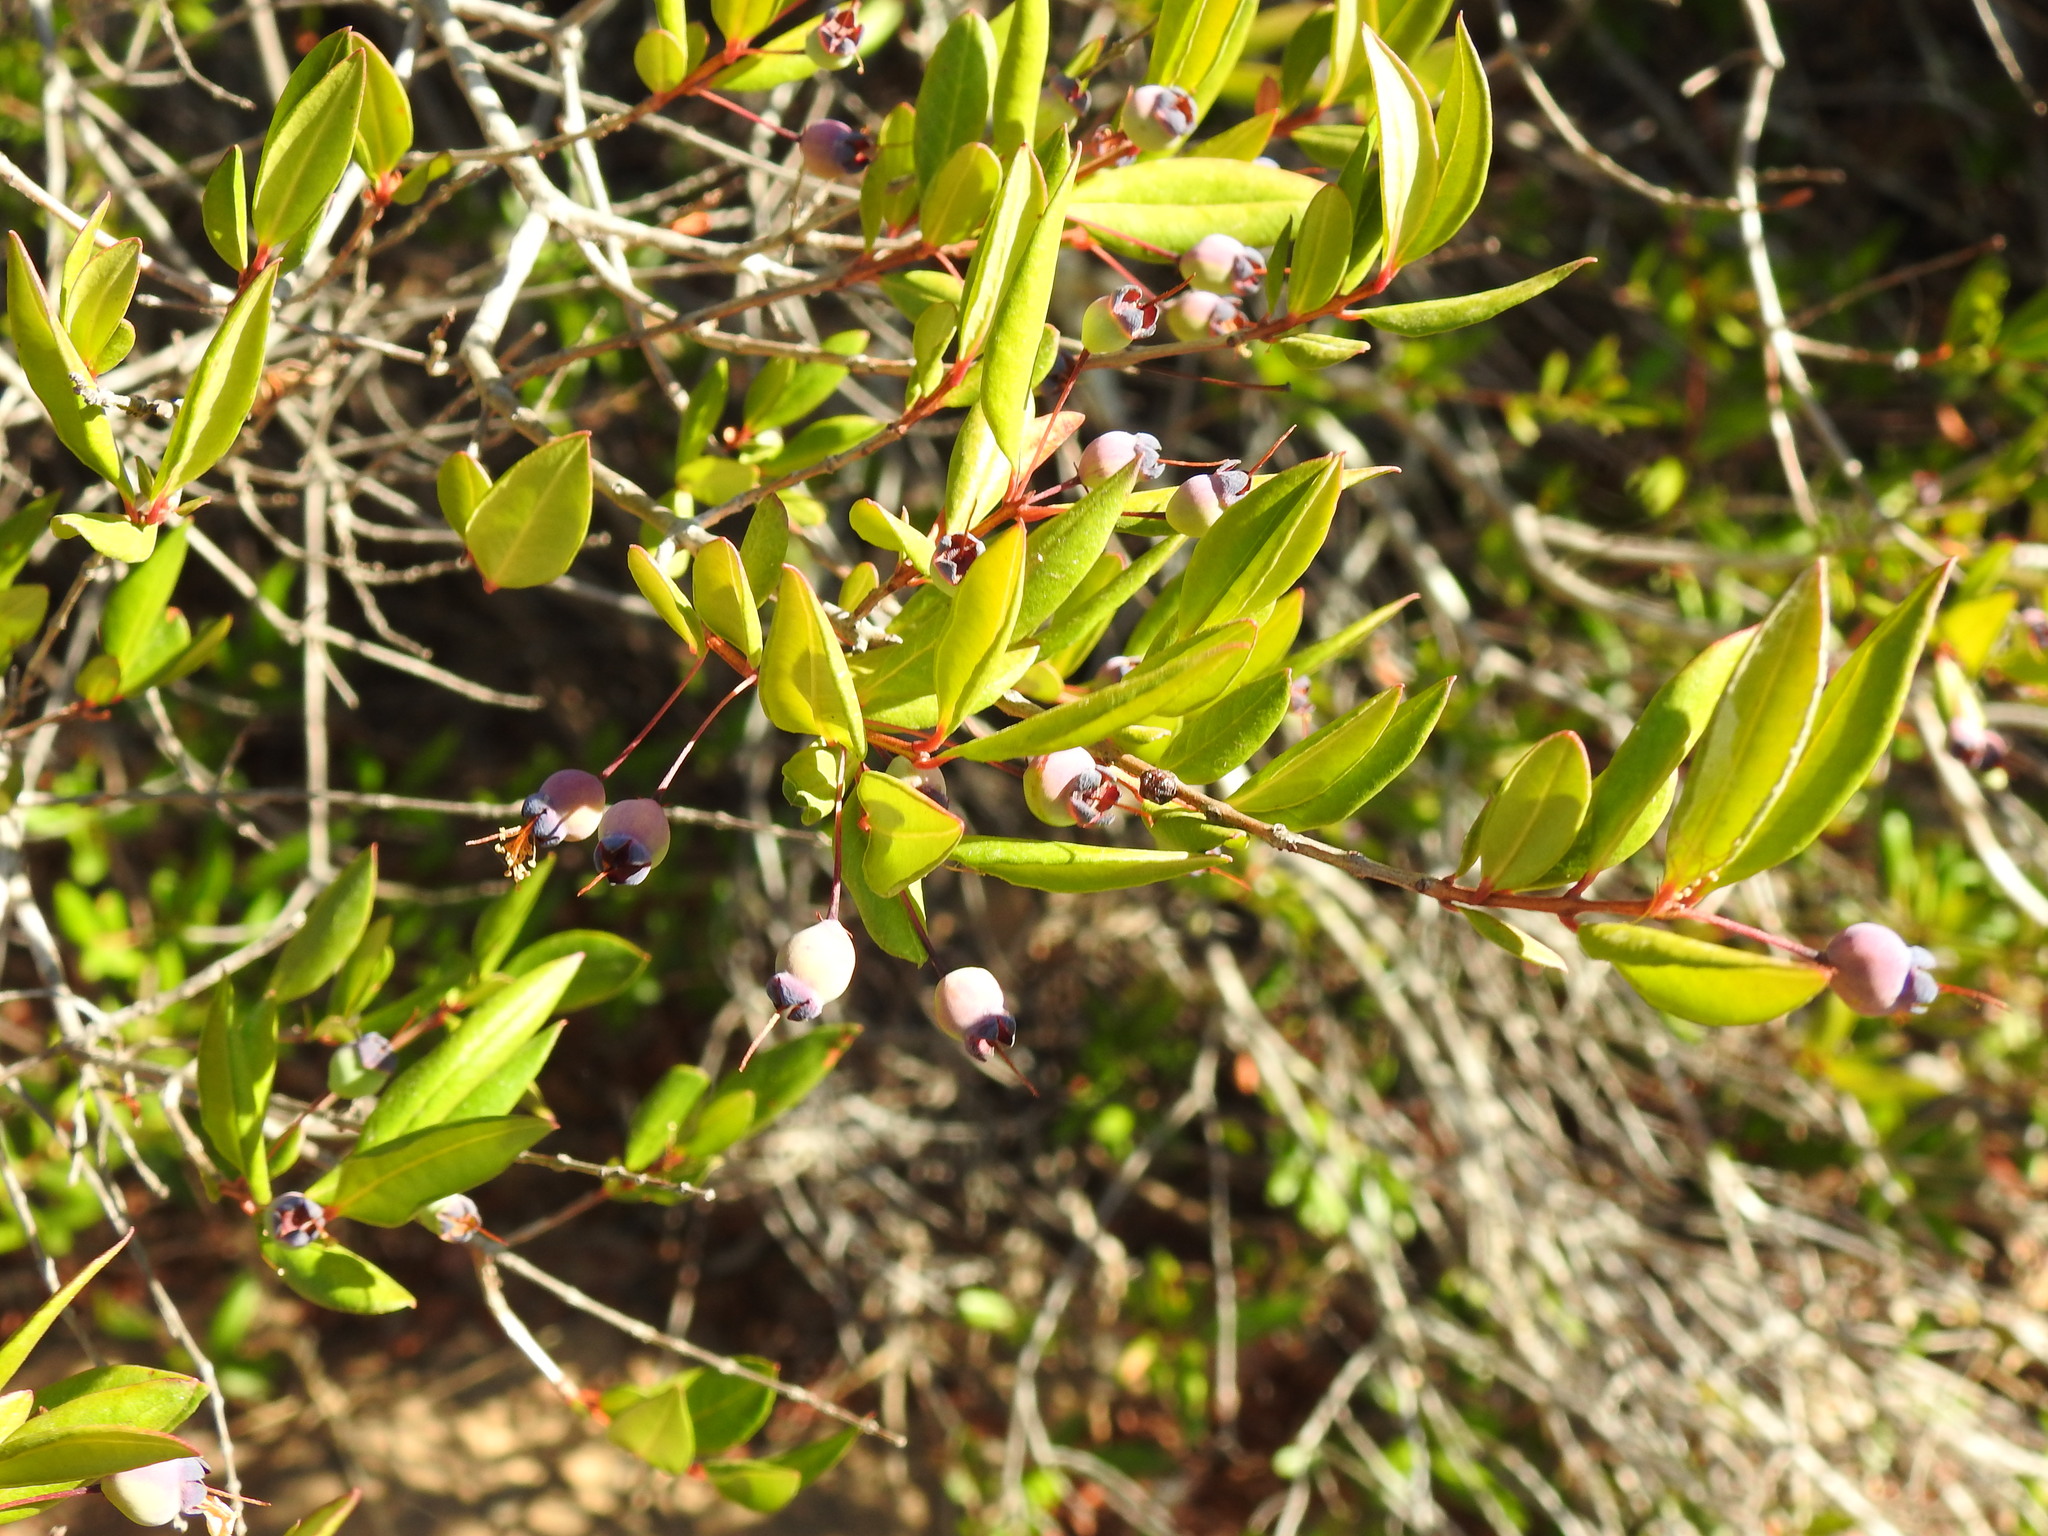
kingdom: Plantae
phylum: Tracheophyta
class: Magnoliopsida
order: Myrtales
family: Myrtaceae
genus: Myrtus
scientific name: Myrtus communis
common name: Myrtle
